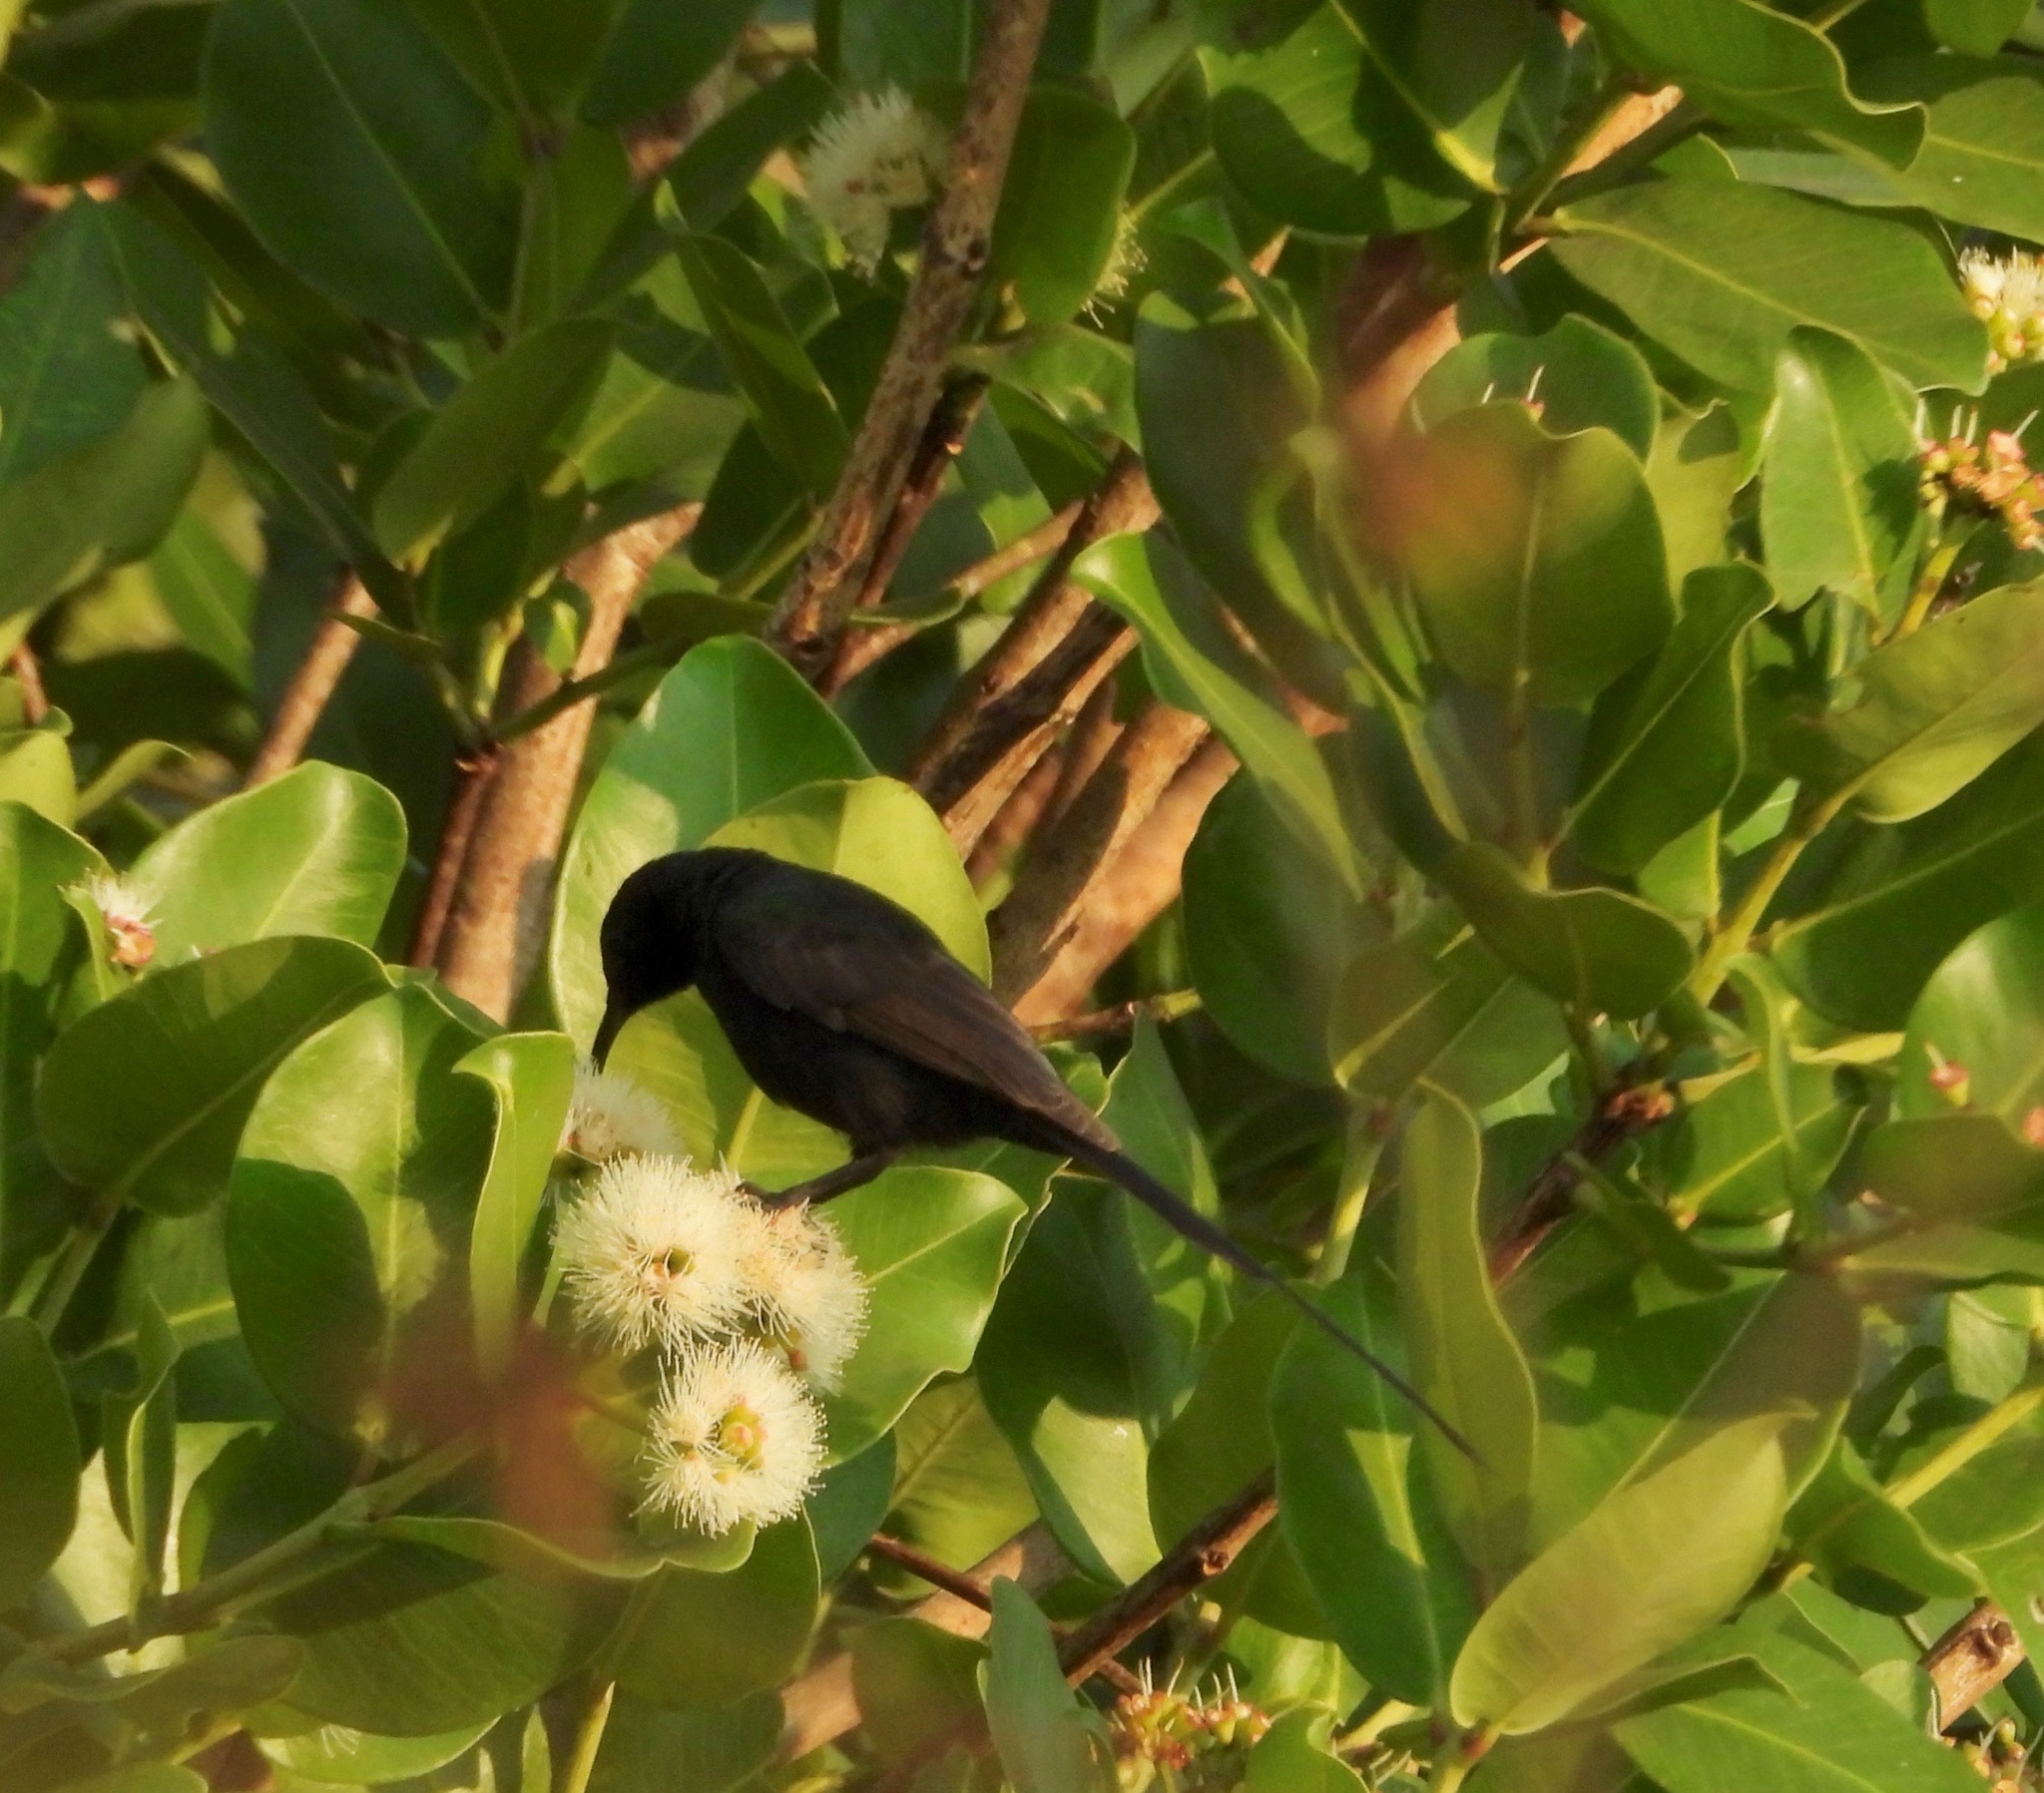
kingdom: Animalia
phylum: Chordata
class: Aves
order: Passeriformes
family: Nectariniidae
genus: Nectarinia
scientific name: Nectarinia kilimensis
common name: Bronzy sunbird
